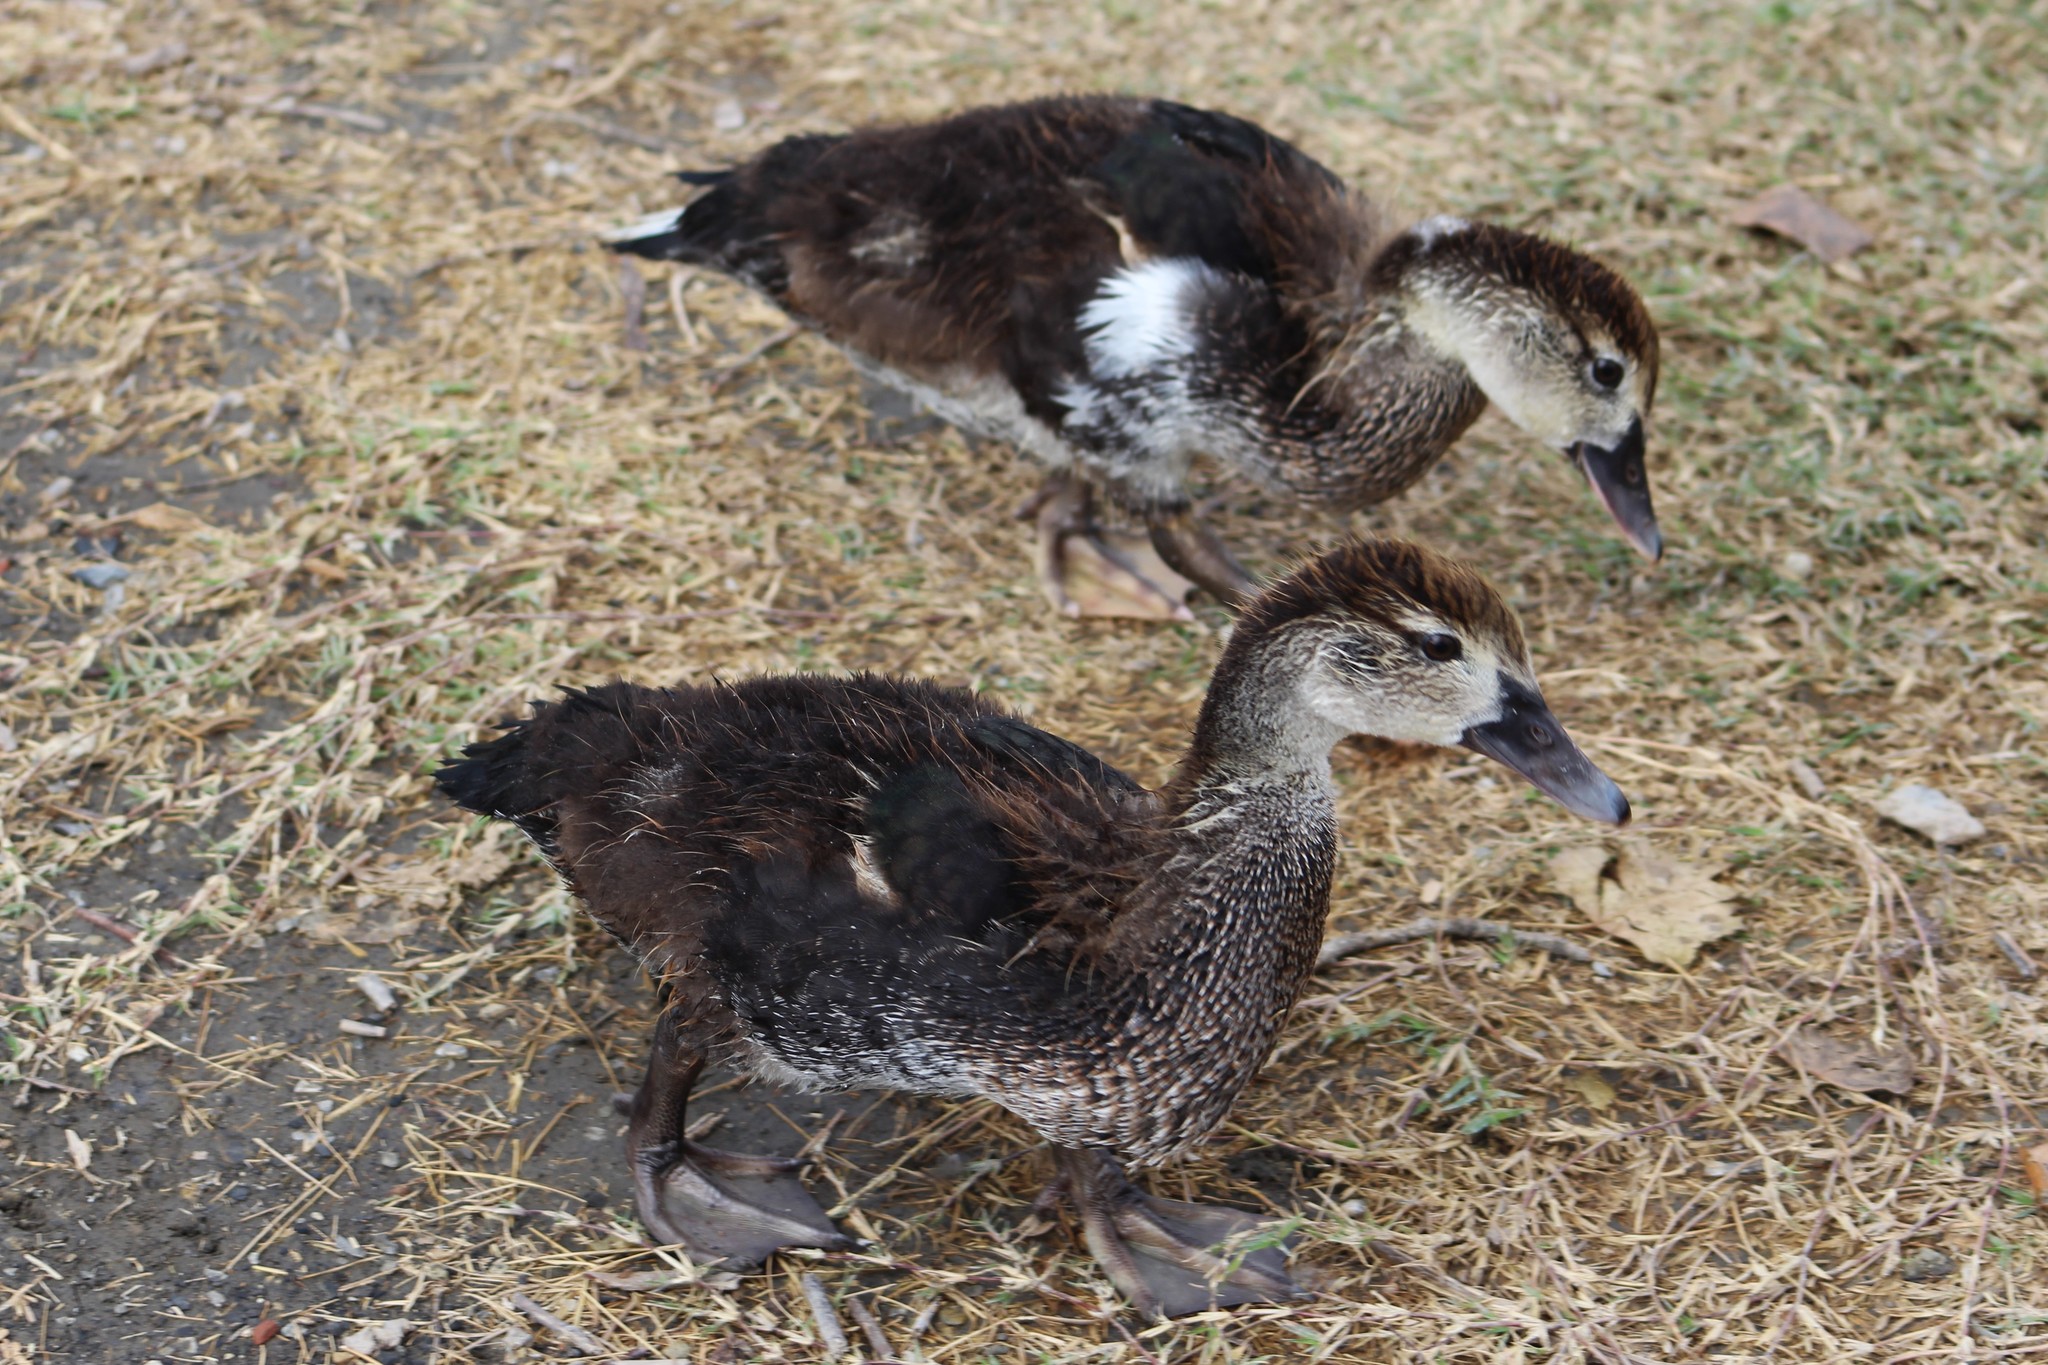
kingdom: Animalia
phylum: Chordata
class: Aves
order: Anseriformes
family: Anatidae
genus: Cairina
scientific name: Cairina moschata
